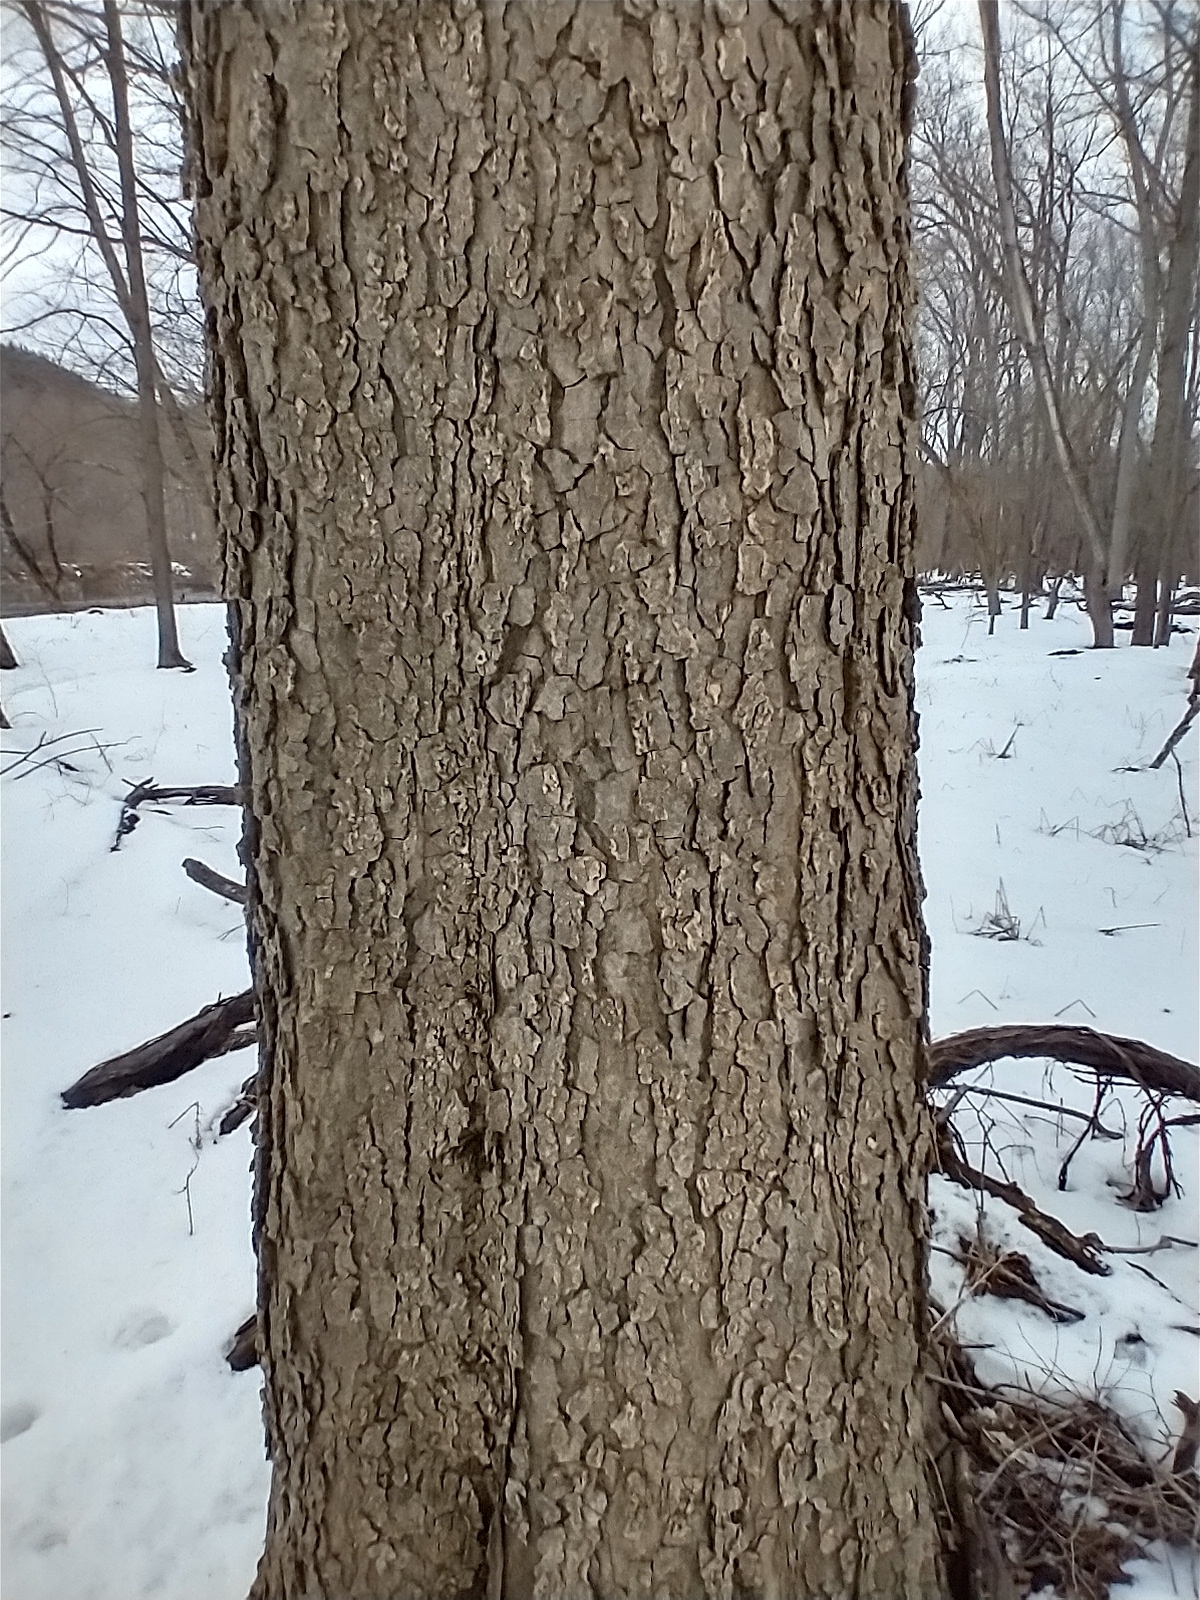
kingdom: Plantae
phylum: Tracheophyta
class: Magnoliopsida
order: Rosales
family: Cannabaceae
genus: Celtis
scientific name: Celtis occidentalis
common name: Common hackberry
